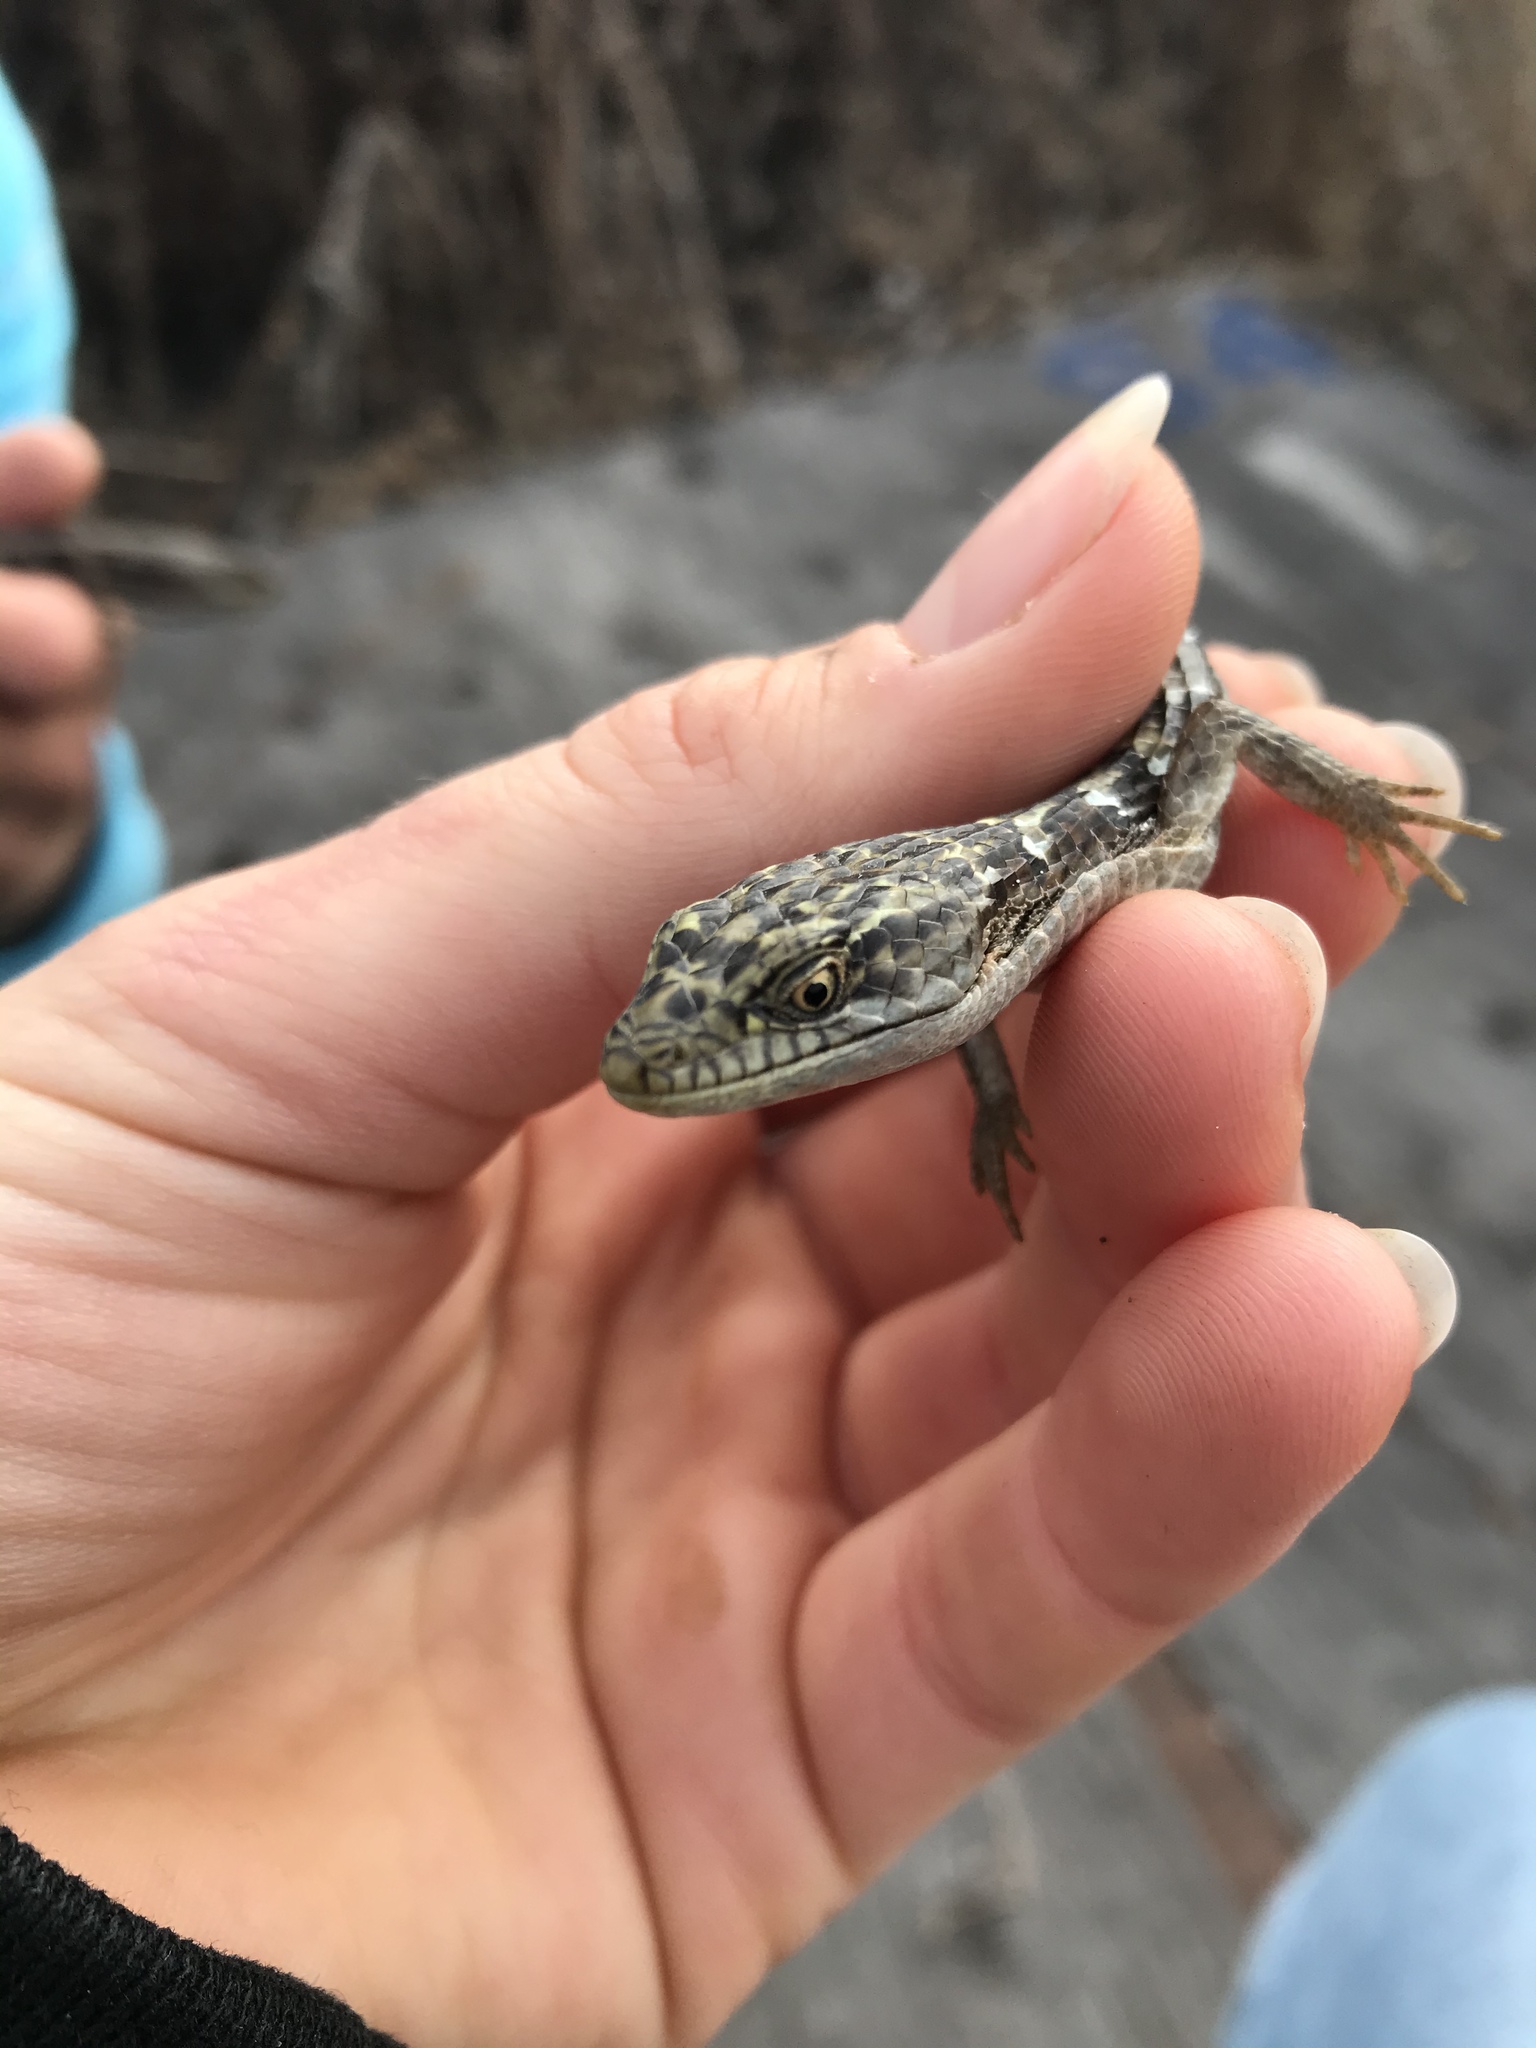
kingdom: Animalia
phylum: Chordata
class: Squamata
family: Anguidae
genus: Elgaria
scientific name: Elgaria multicarinata
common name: Southern alligator lizard
